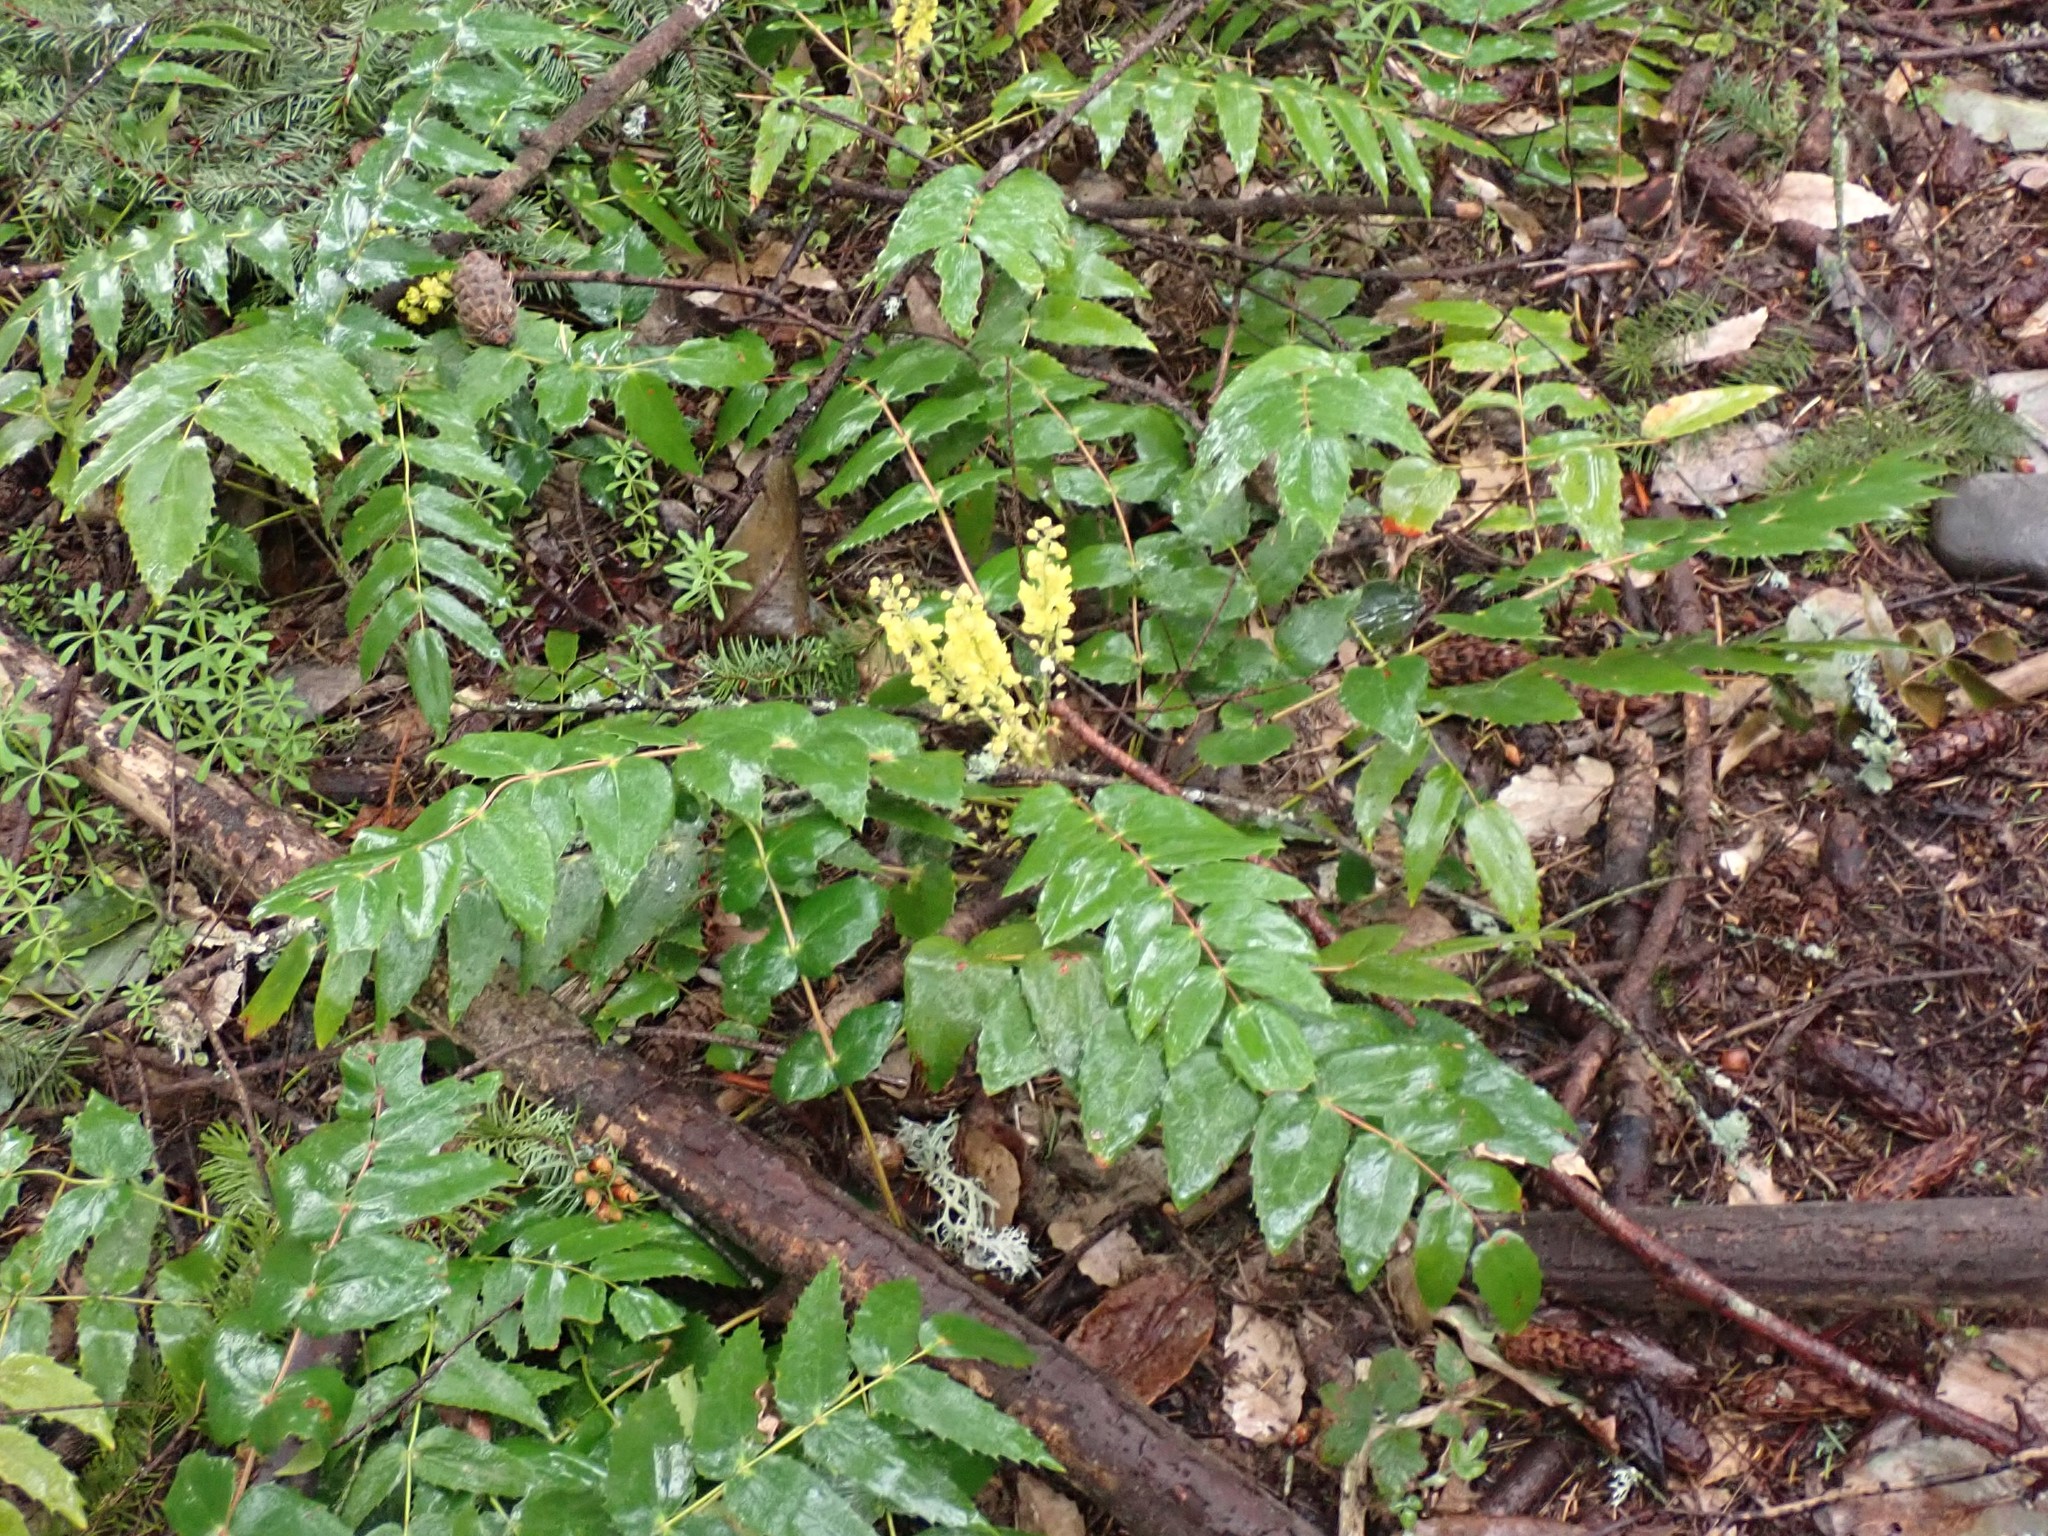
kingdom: Plantae
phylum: Tracheophyta
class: Magnoliopsida
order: Ranunculales
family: Berberidaceae
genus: Mahonia
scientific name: Mahonia nervosa
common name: Cascade oregon-grape
